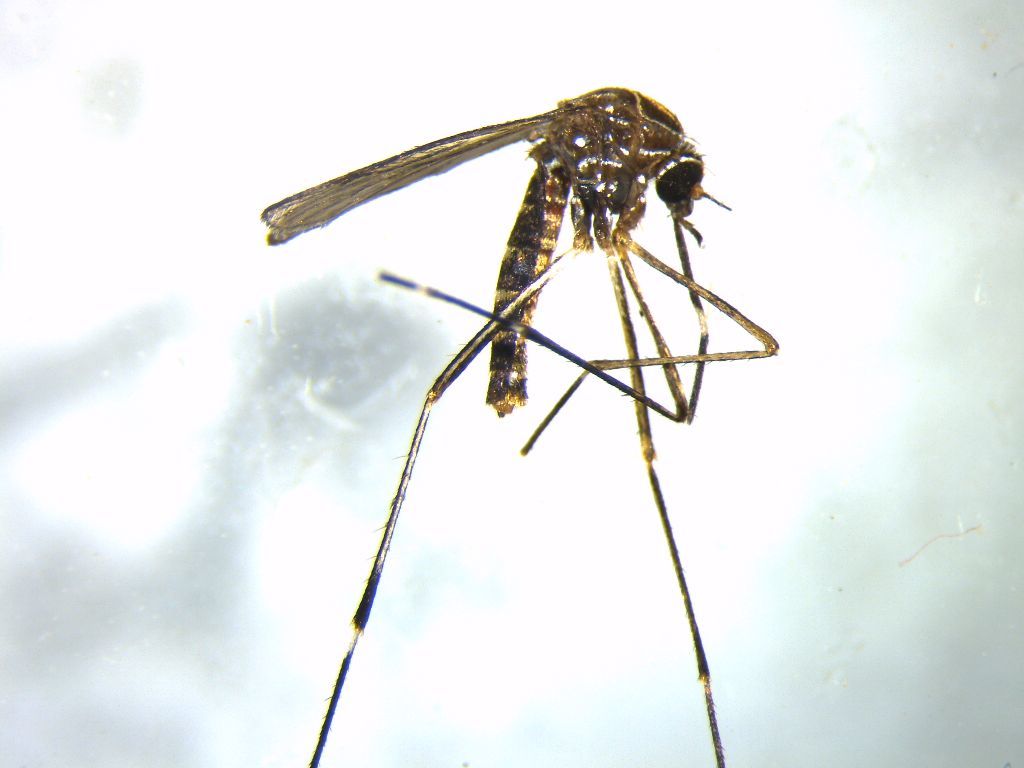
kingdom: Animalia
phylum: Arthropoda
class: Insecta
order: Diptera
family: Culicidae
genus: Aedes
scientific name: Aedes notoscriptus
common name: Australian backyard mosquito
